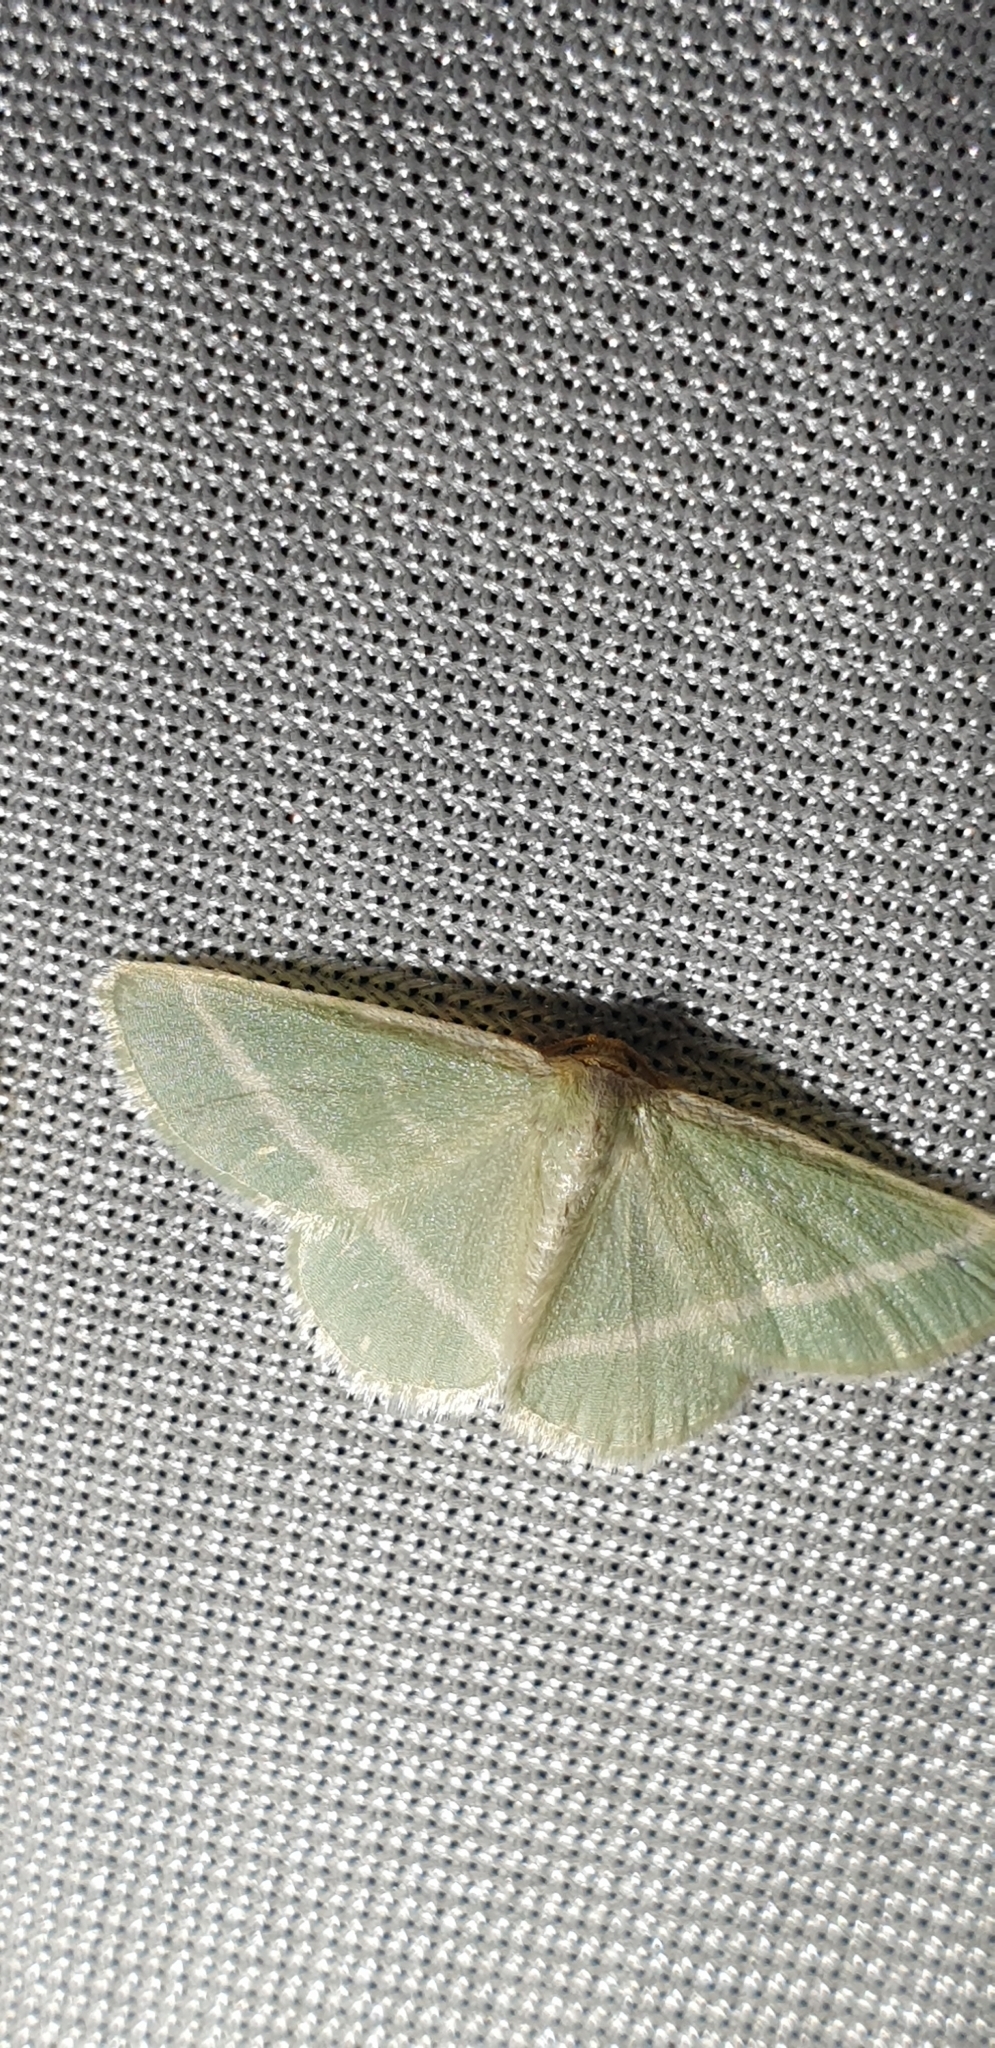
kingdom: Animalia
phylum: Arthropoda
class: Insecta
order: Lepidoptera
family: Geometridae
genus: Mixocera
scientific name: Mixocera latilineata
